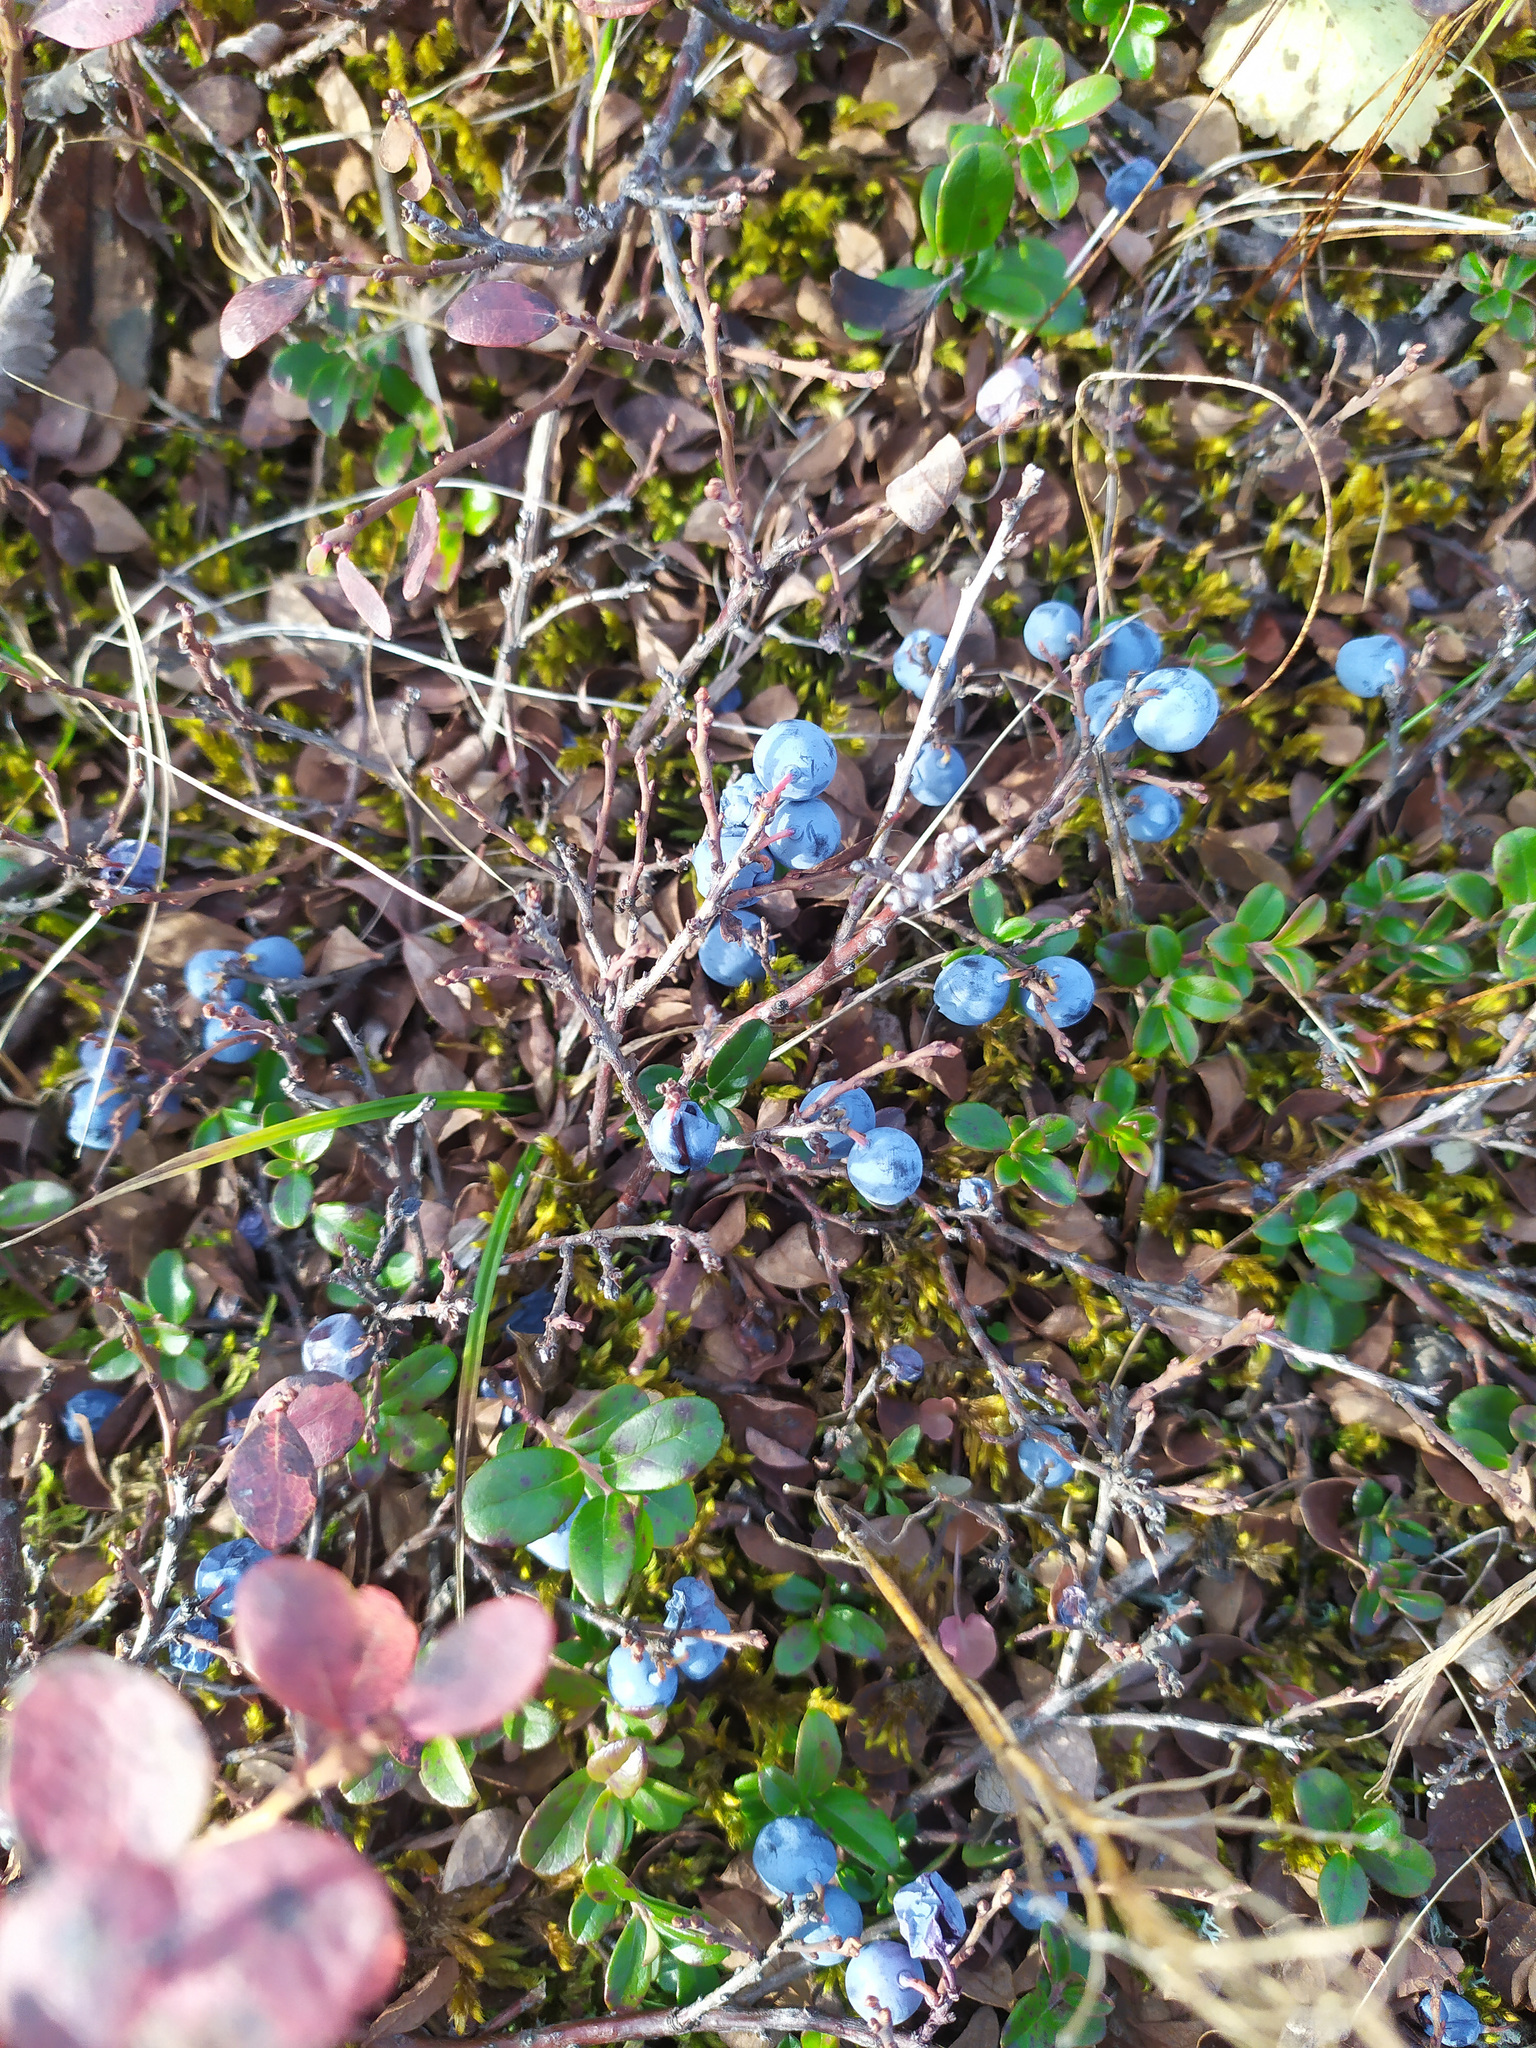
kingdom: Plantae
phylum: Tracheophyta
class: Magnoliopsida
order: Ericales
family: Ericaceae
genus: Vaccinium
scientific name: Vaccinium uliginosum
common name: Bog bilberry
